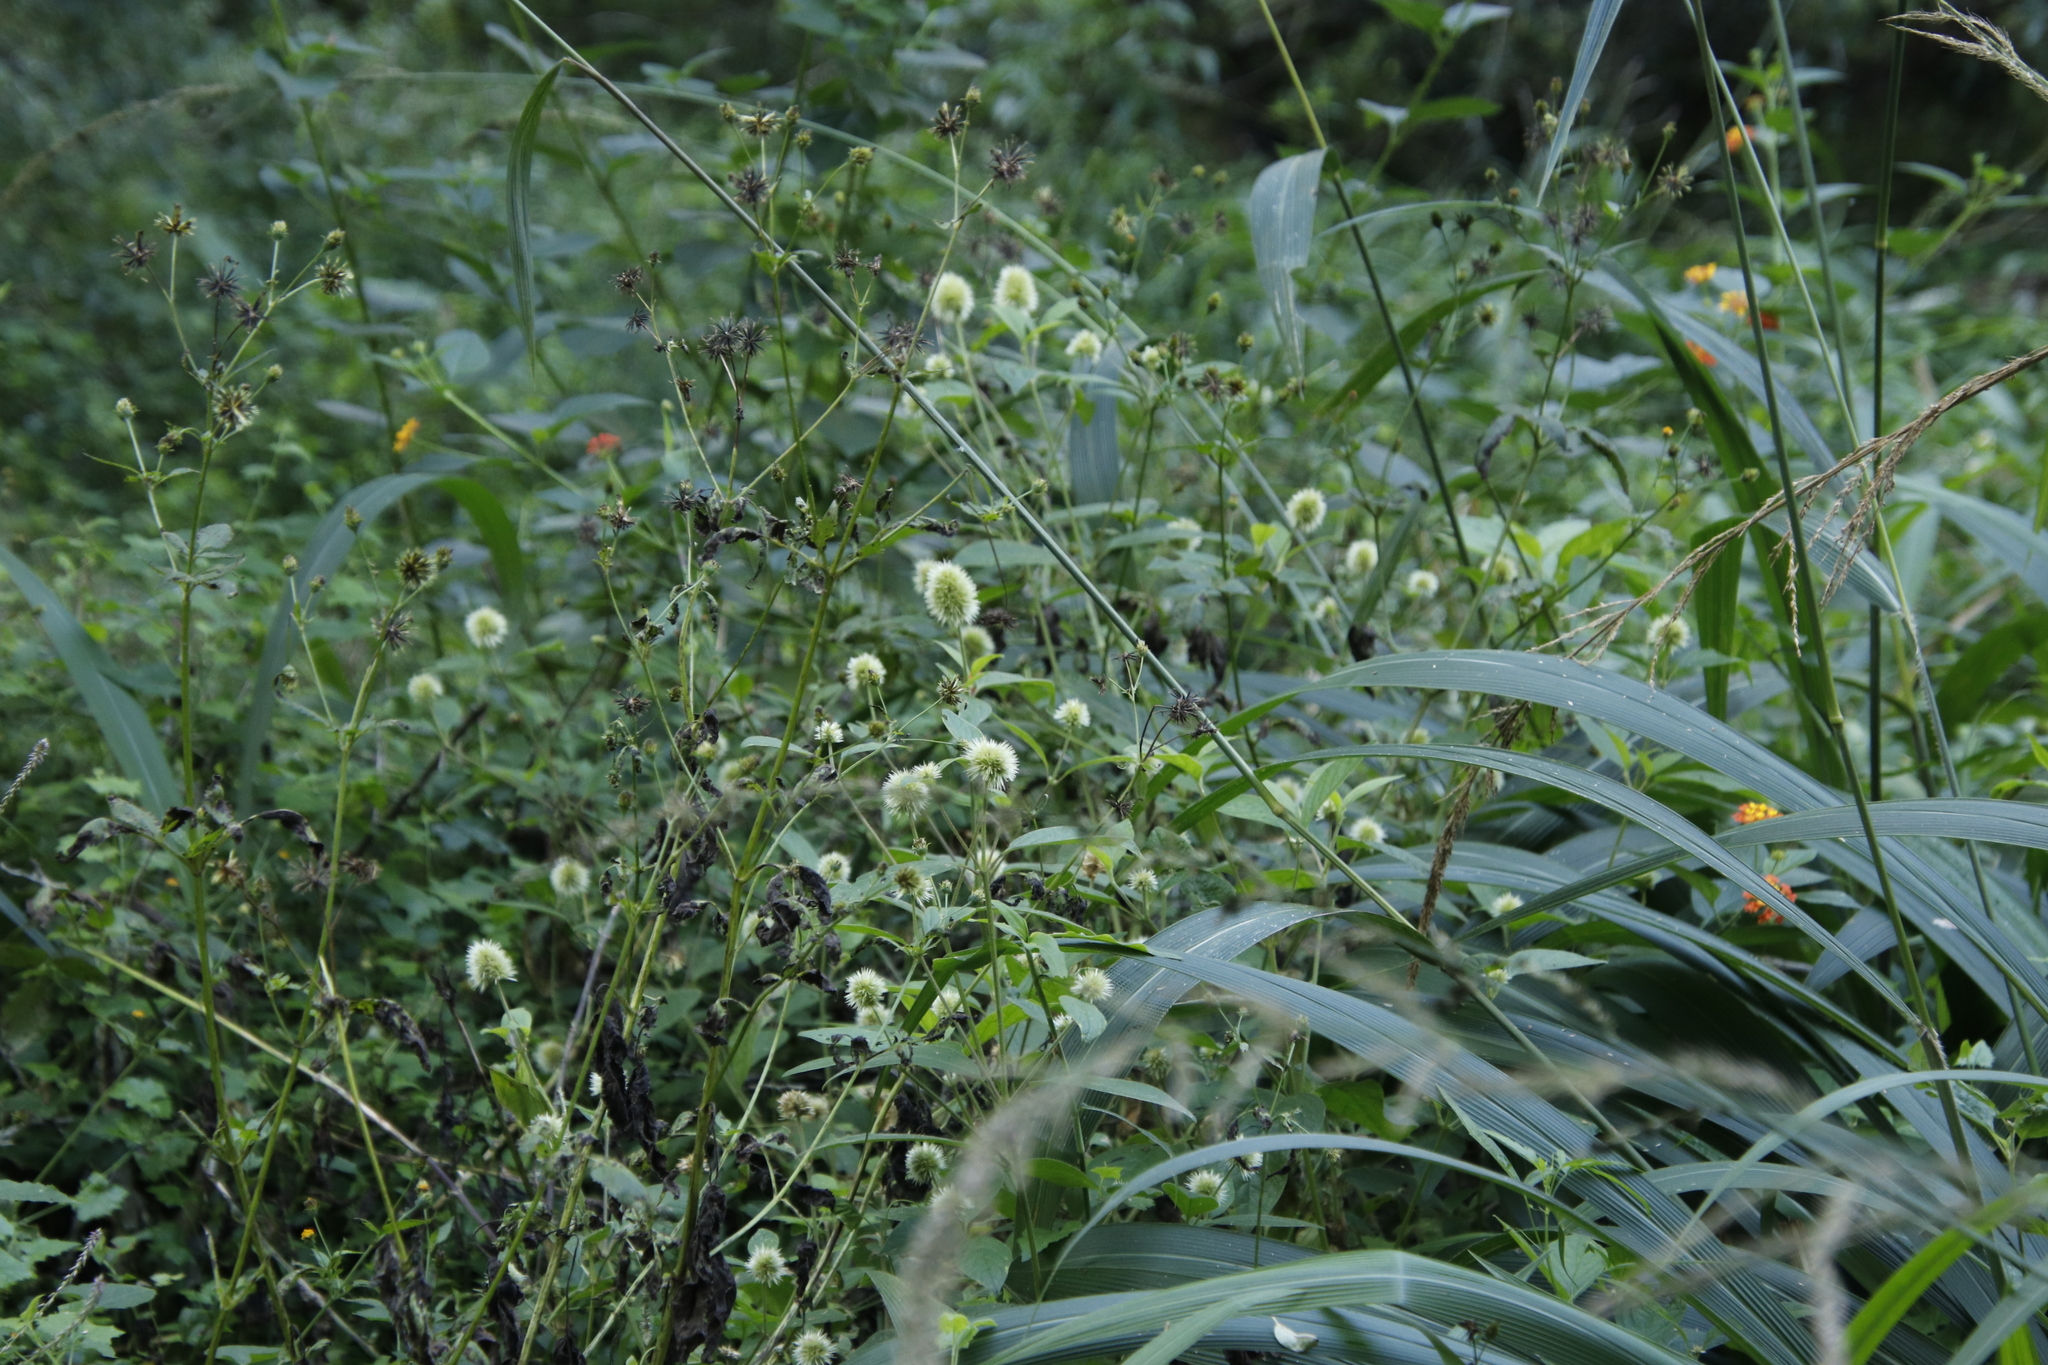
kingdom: Plantae
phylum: Tracheophyta
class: Magnoliopsida
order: Asterales
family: Asteraceae
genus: Bidens
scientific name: Bidens pilosa
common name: Black-jack
